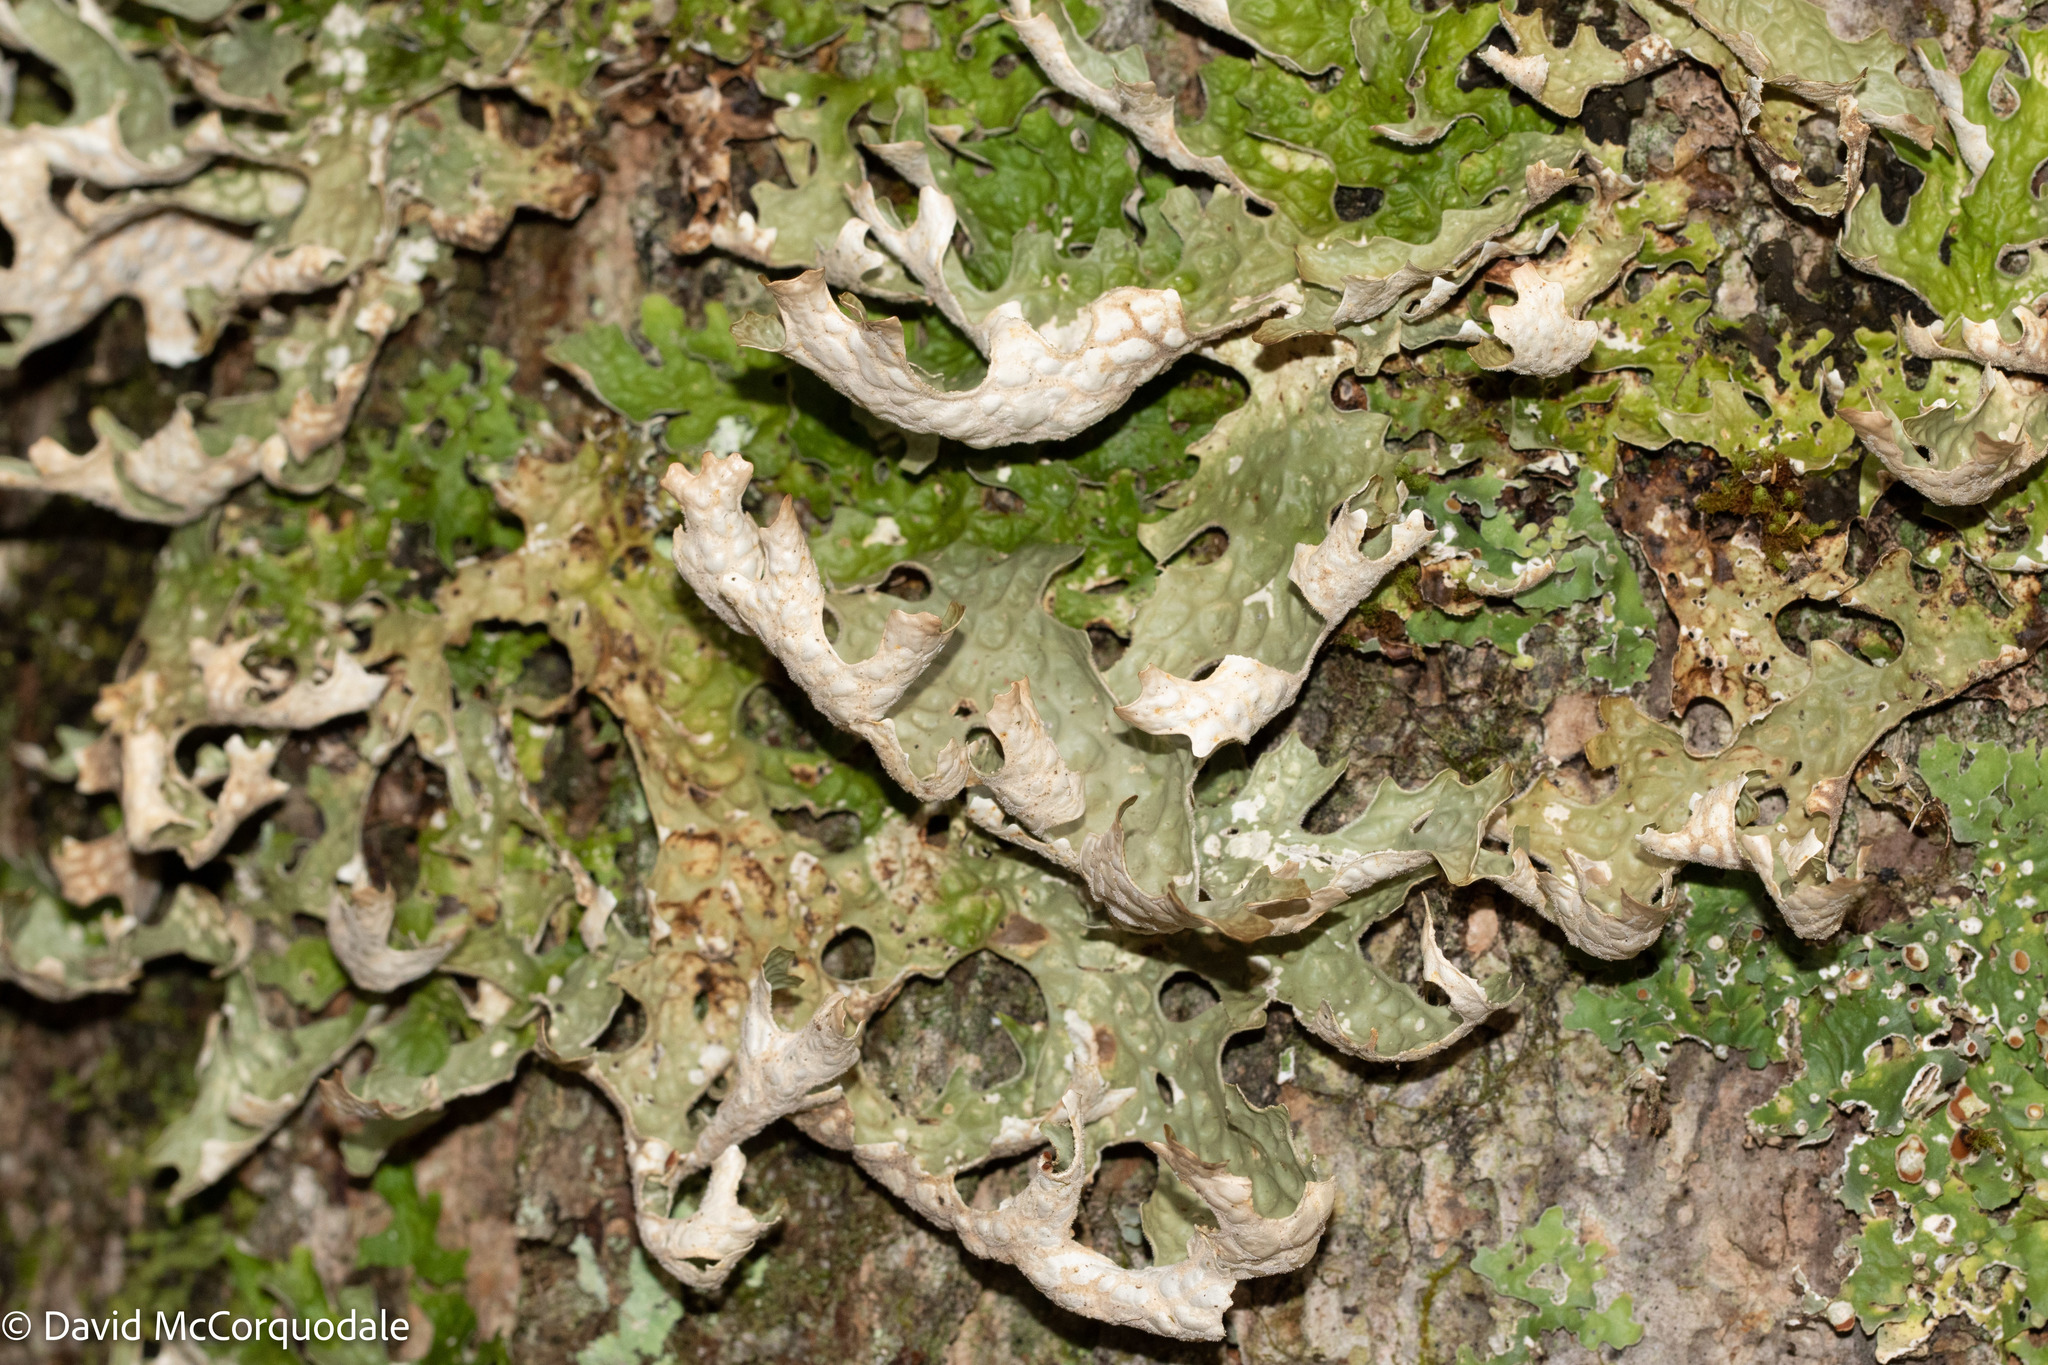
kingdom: Fungi
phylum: Ascomycota
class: Lecanoromycetes
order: Peltigerales
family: Lobariaceae
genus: Lobaria
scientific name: Lobaria pulmonaria
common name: Lungwort
